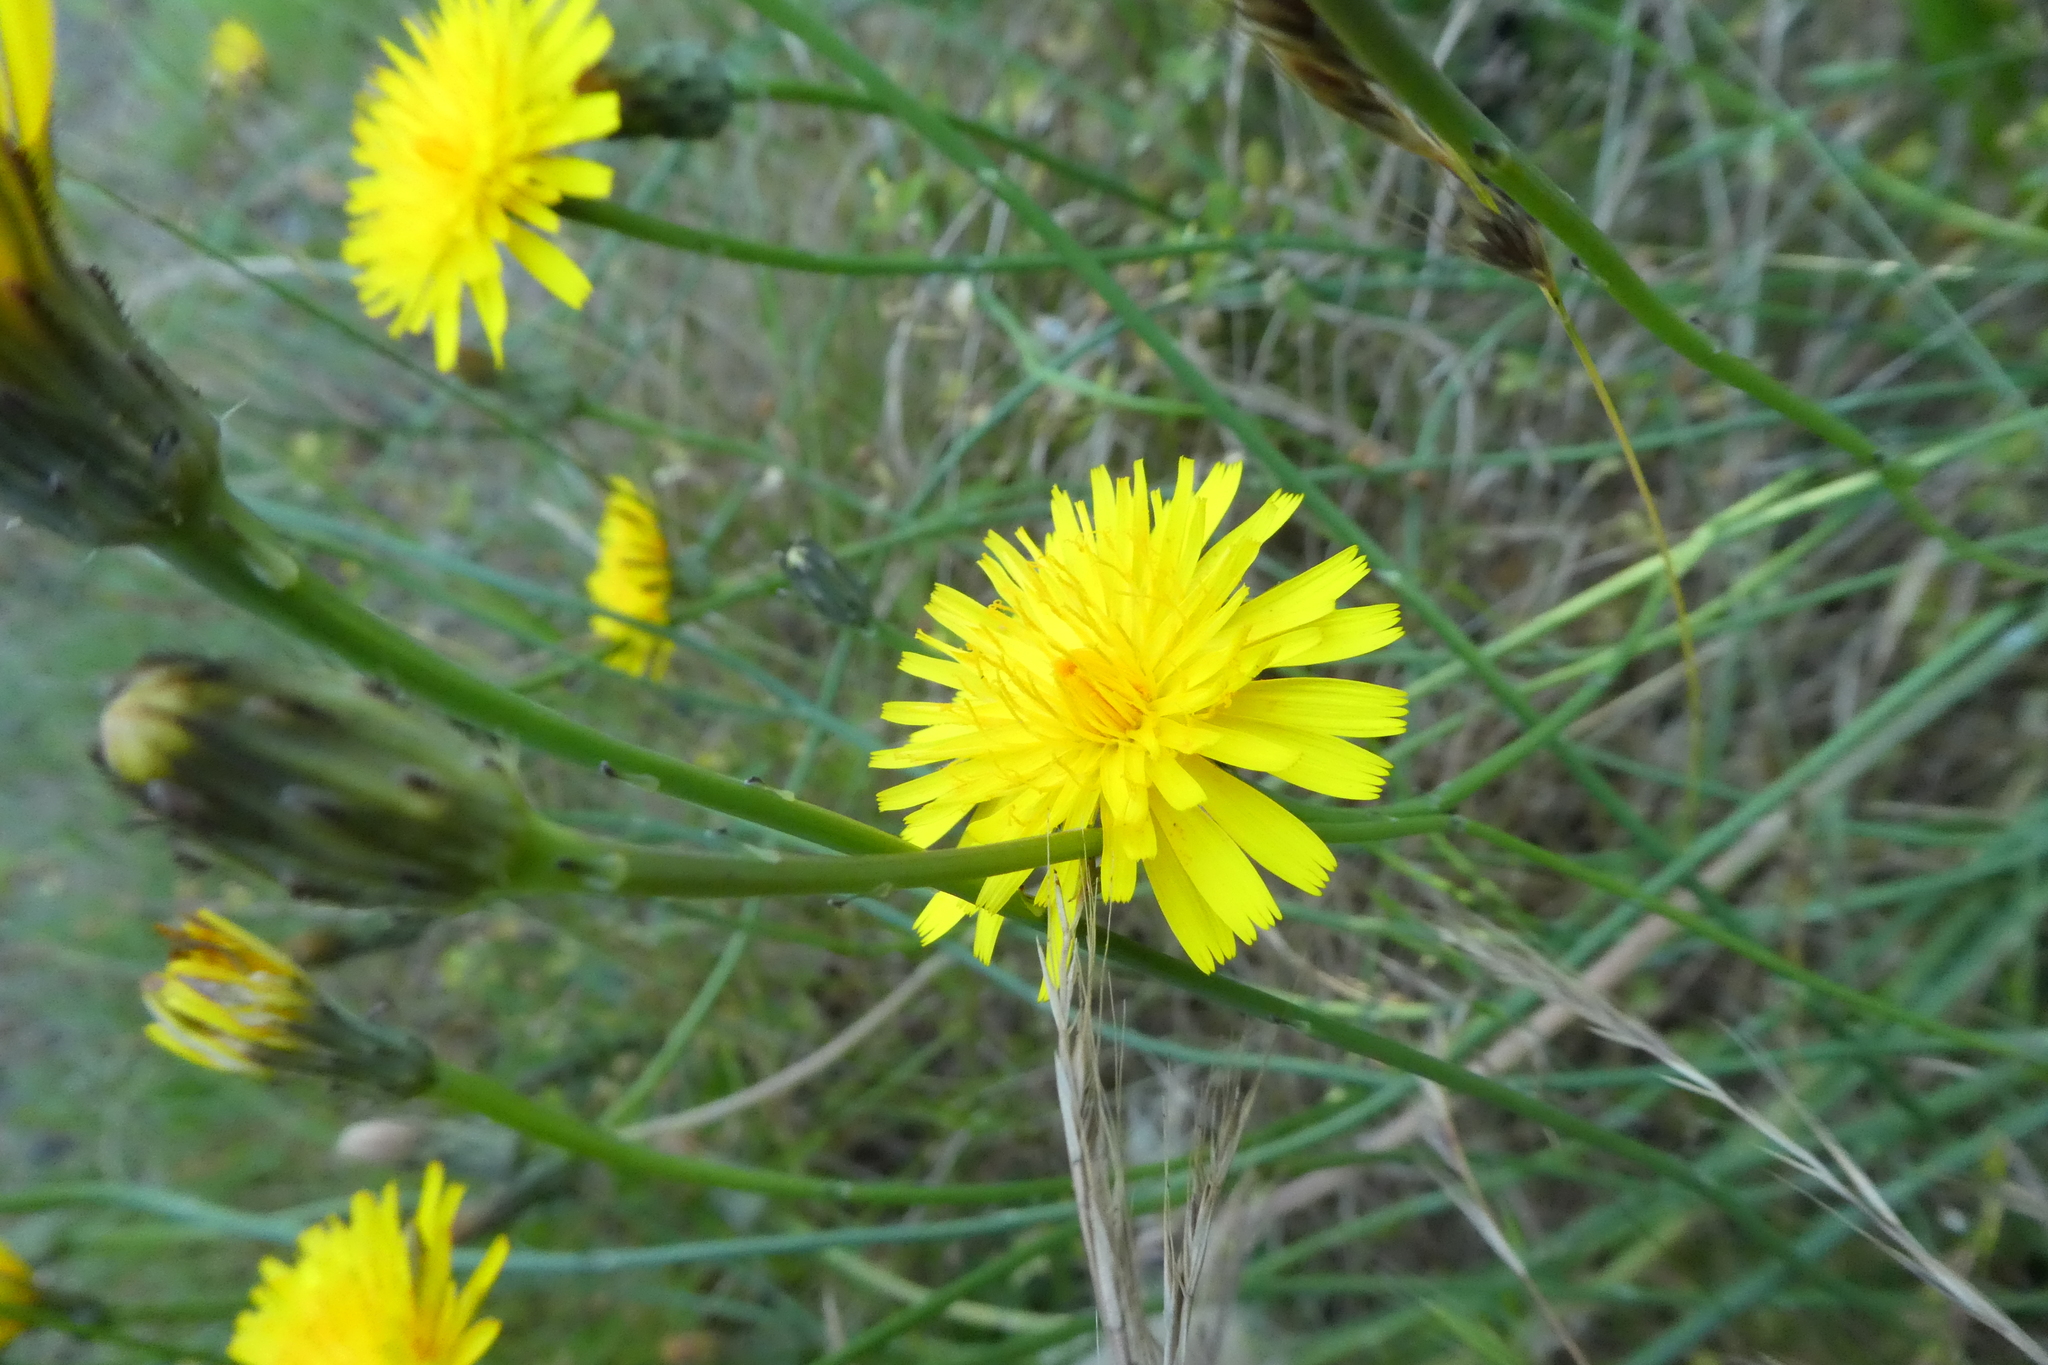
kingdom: Plantae
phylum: Tracheophyta
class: Magnoliopsida
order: Asterales
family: Asteraceae
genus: Hypochaeris
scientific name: Hypochaeris radicata
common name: Flatweed
